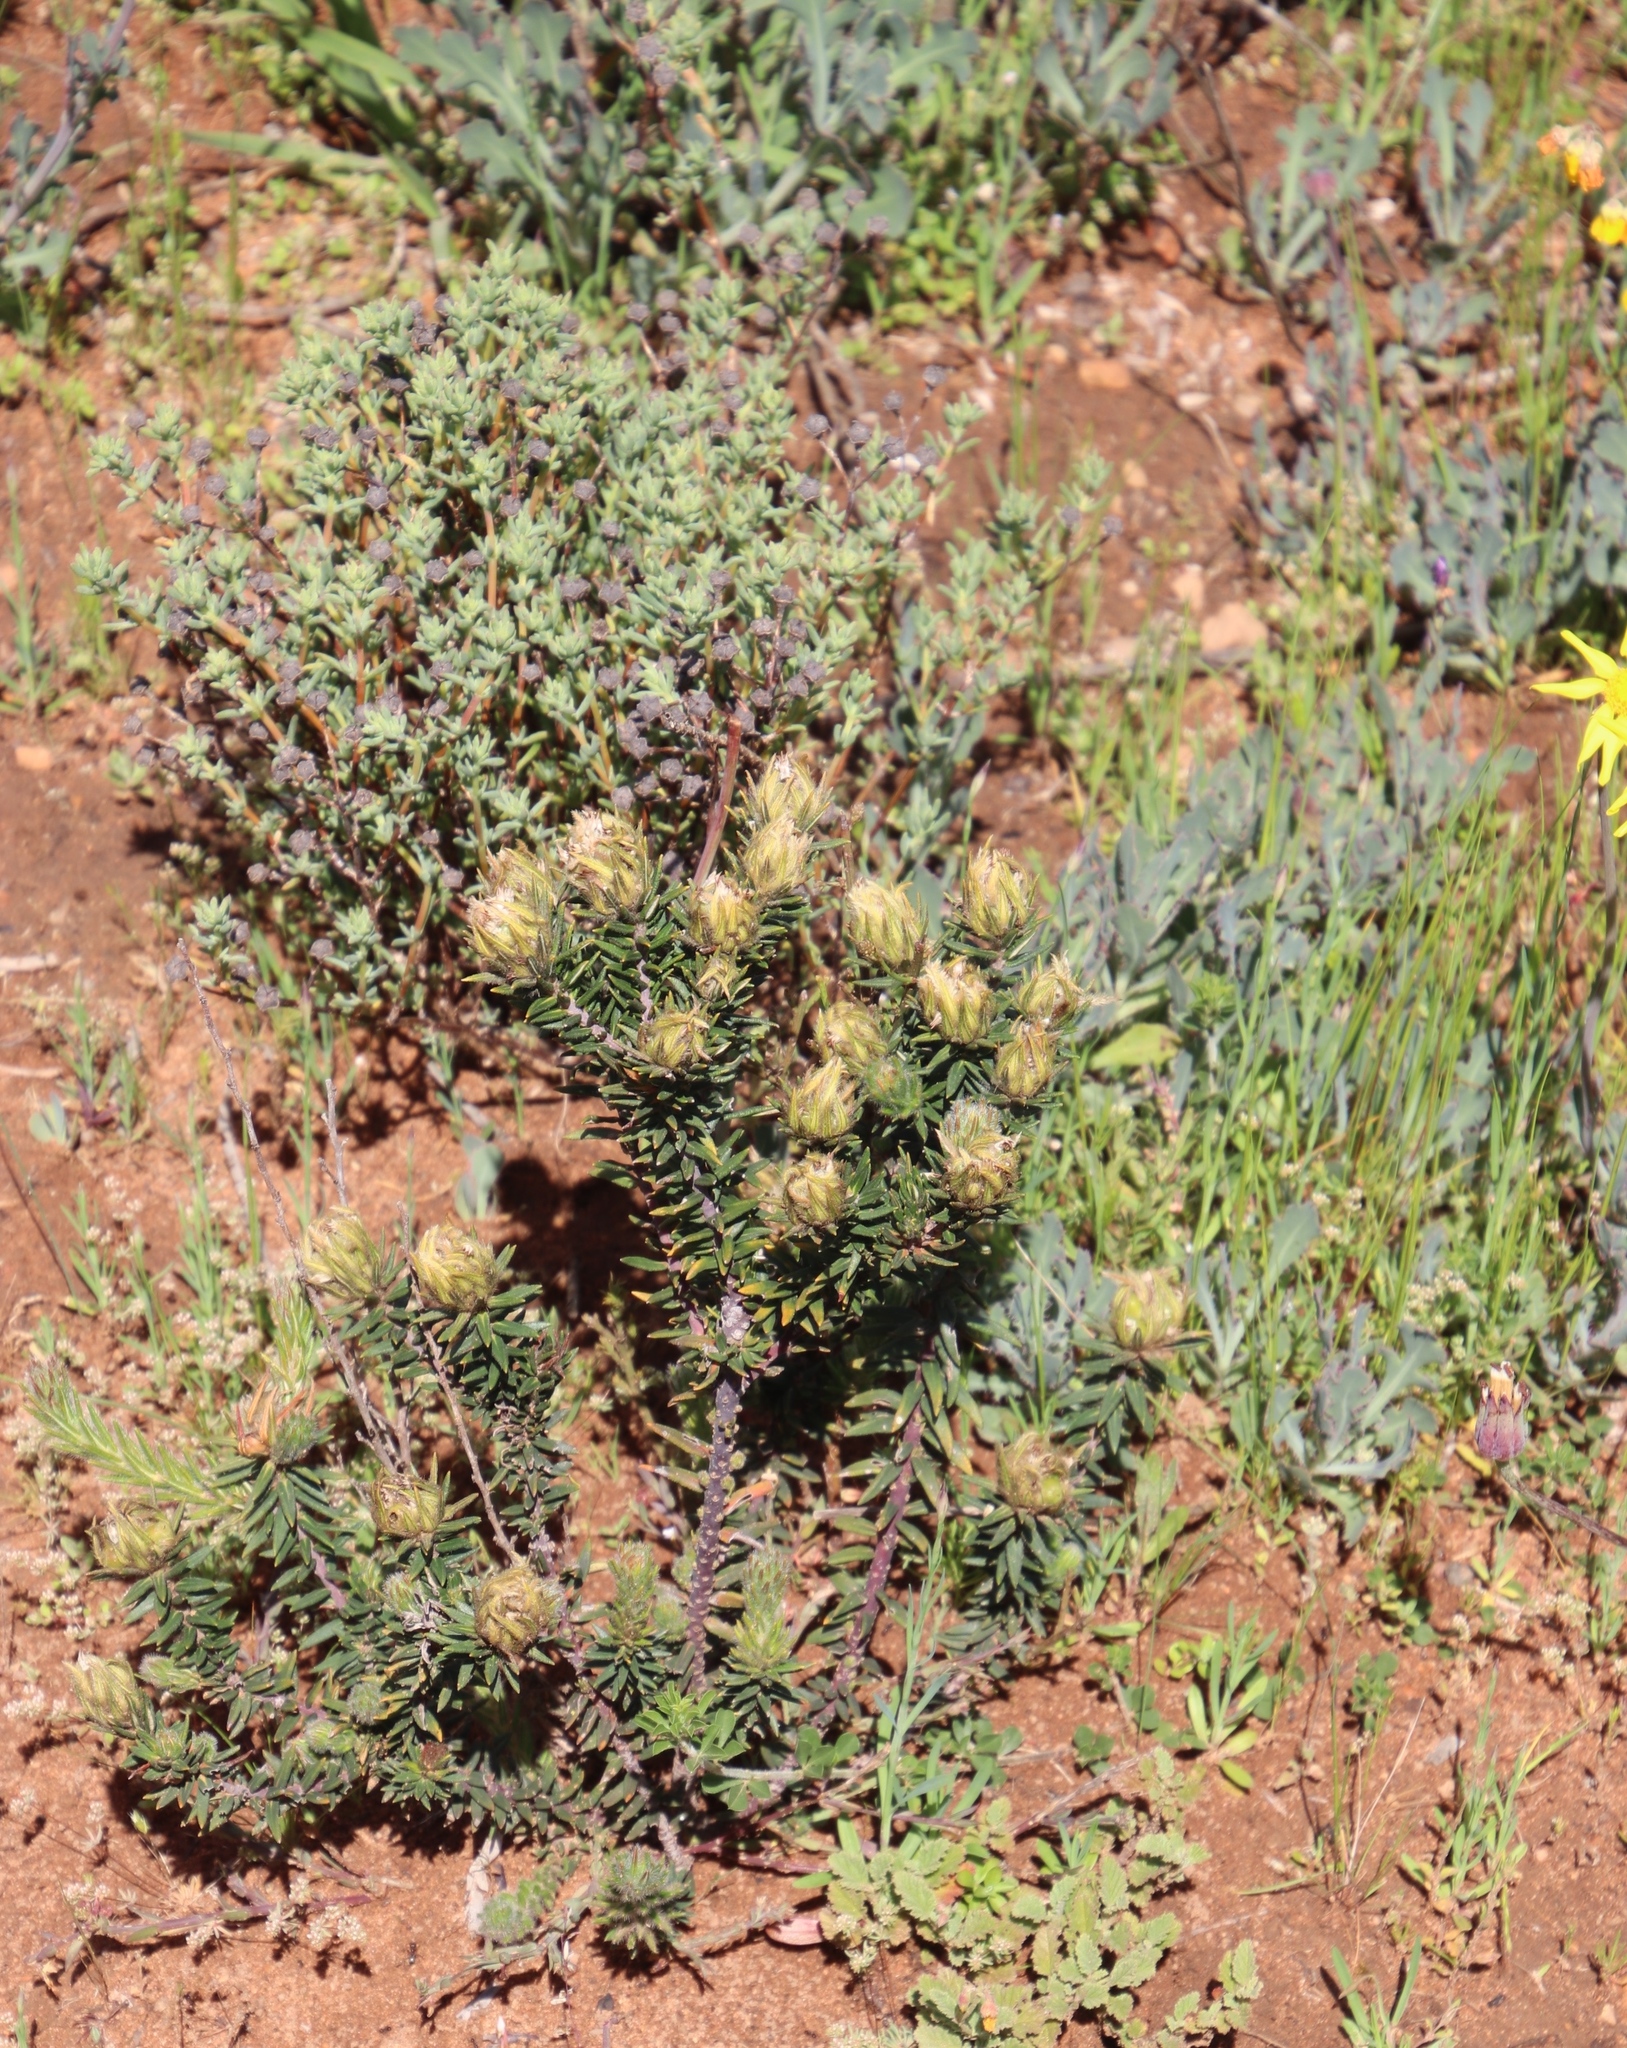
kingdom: Plantae
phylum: Tracheophyta
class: Magnoliopsida
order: Rosales
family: Rhamnaceae
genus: Phylica
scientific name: Phylica plumosa
